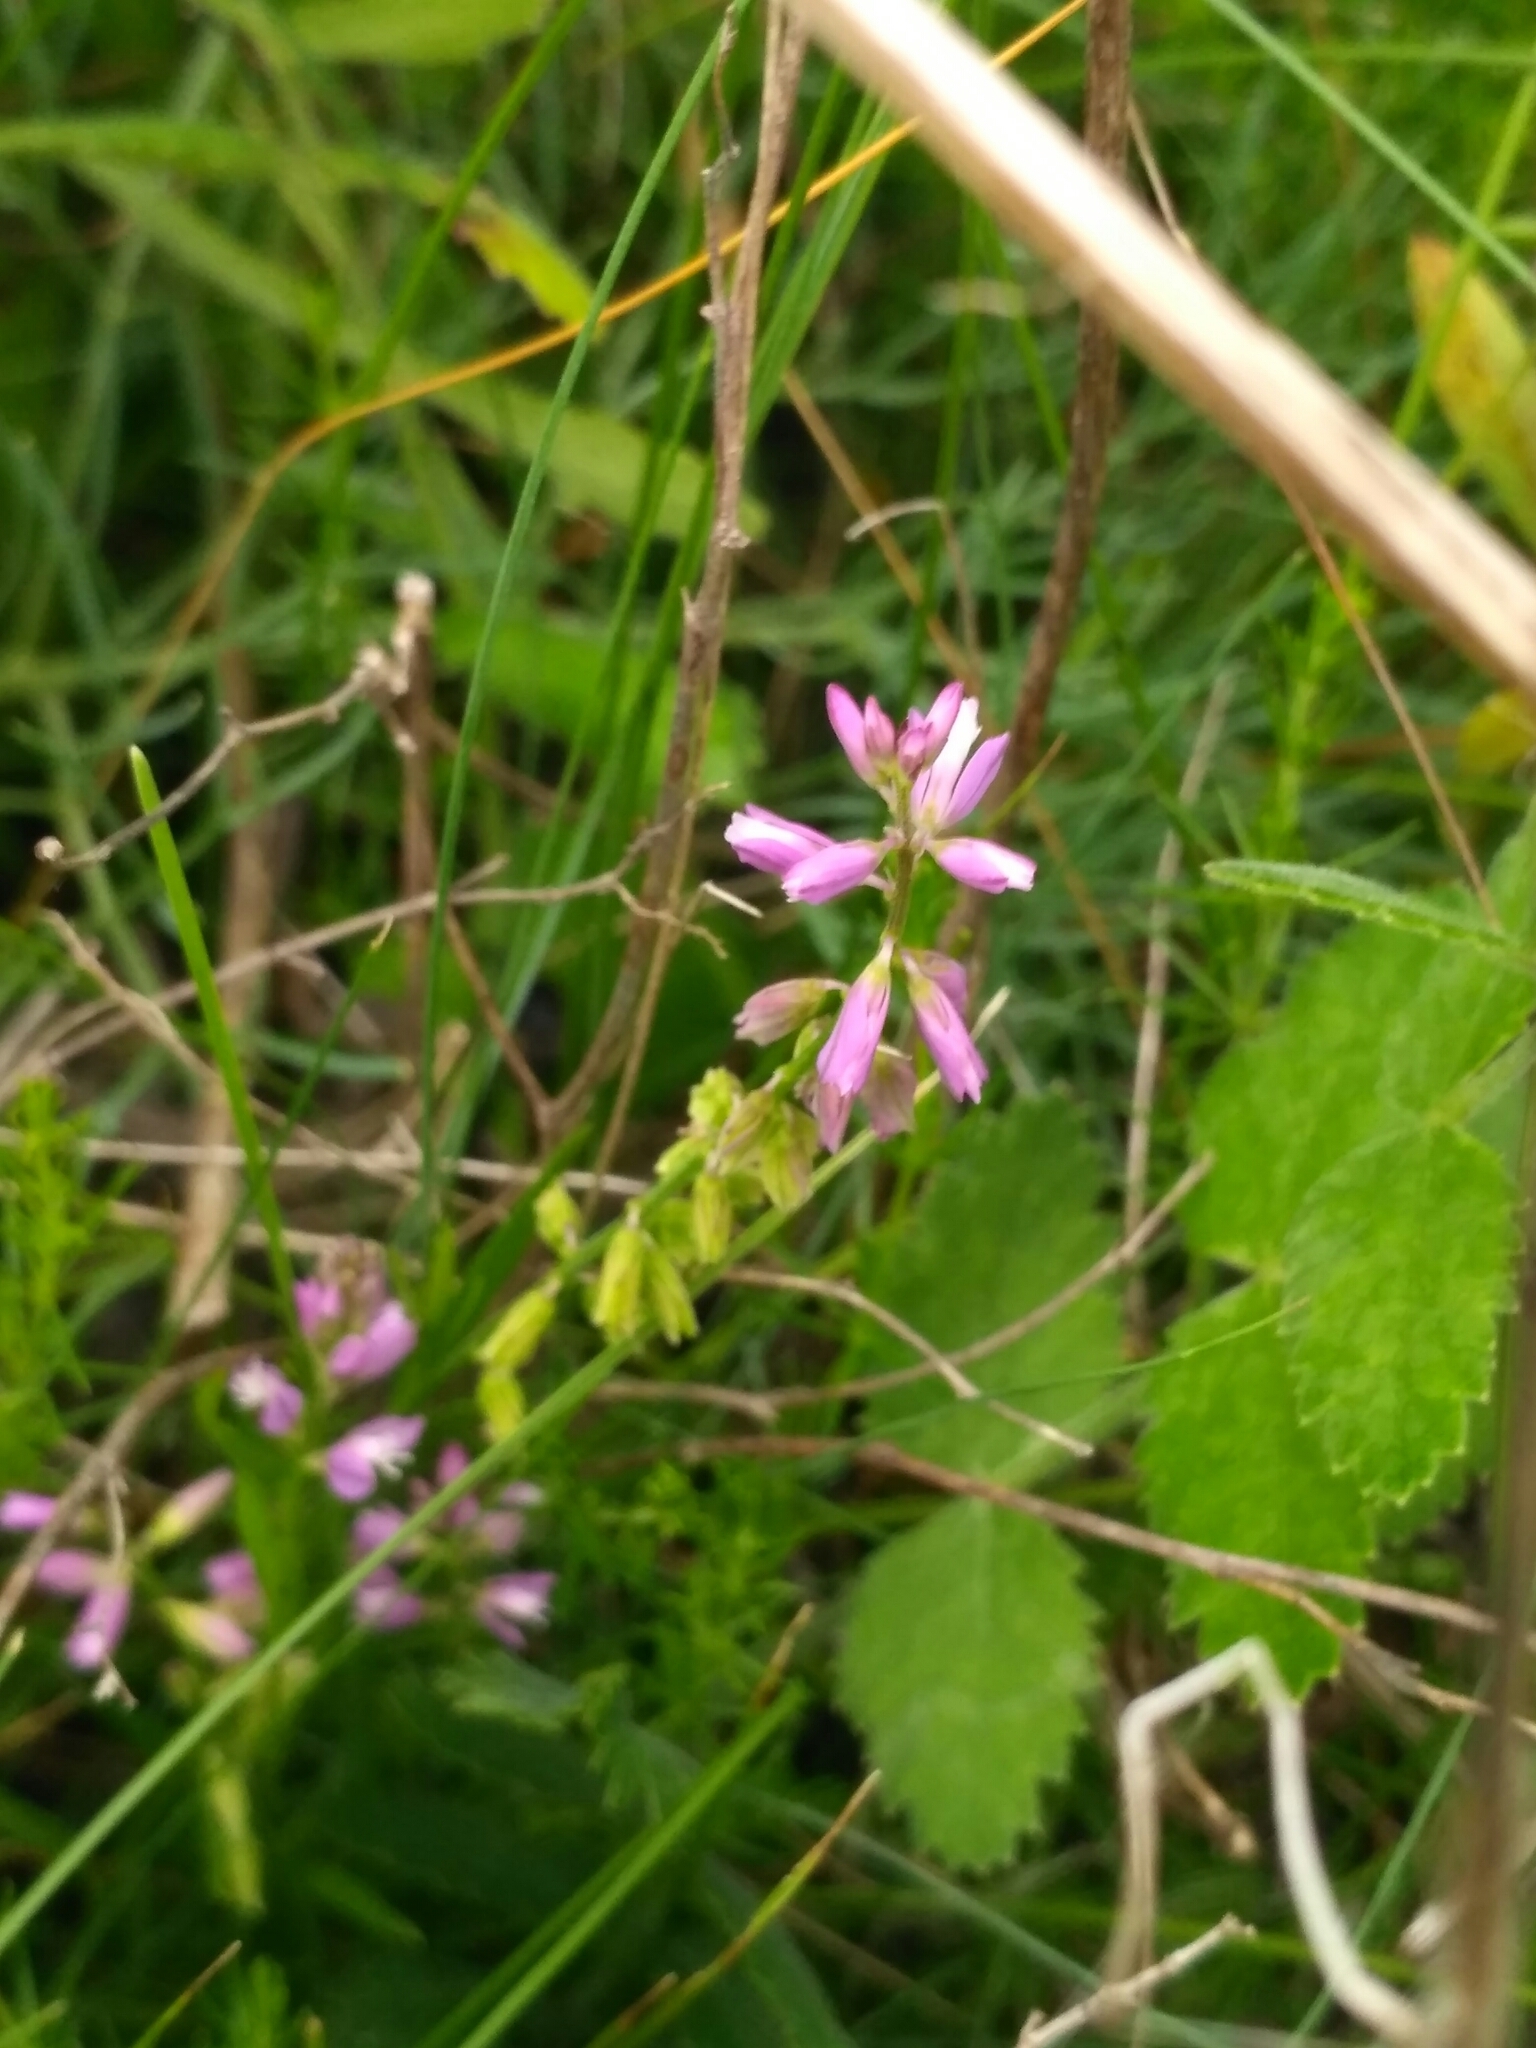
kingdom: Plantae
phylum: Tracheophyta
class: Magnoliopsida
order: Fabales
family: Polygalaceae
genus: Polygala
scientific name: Polygala comosa
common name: Tufted milkwort
